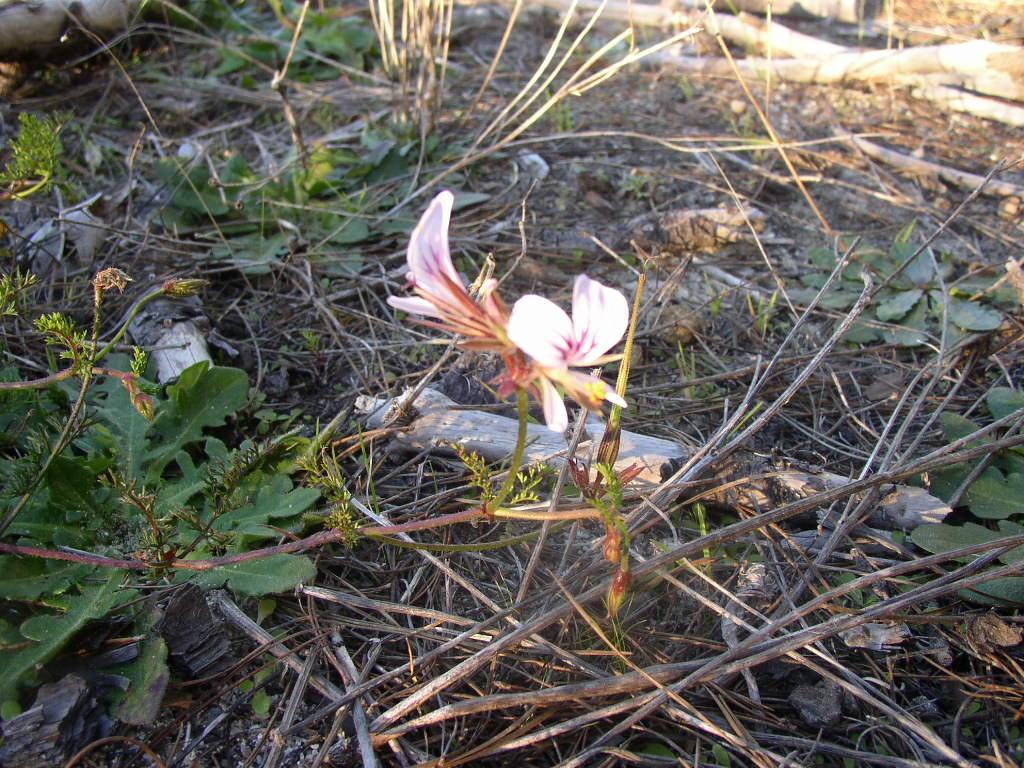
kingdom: Plantae
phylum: Tracheophyta
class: Magnoliopsida
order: Geraniales
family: Geraniaceae
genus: Pelargonium
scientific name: Pelargonium myrrhifolium
